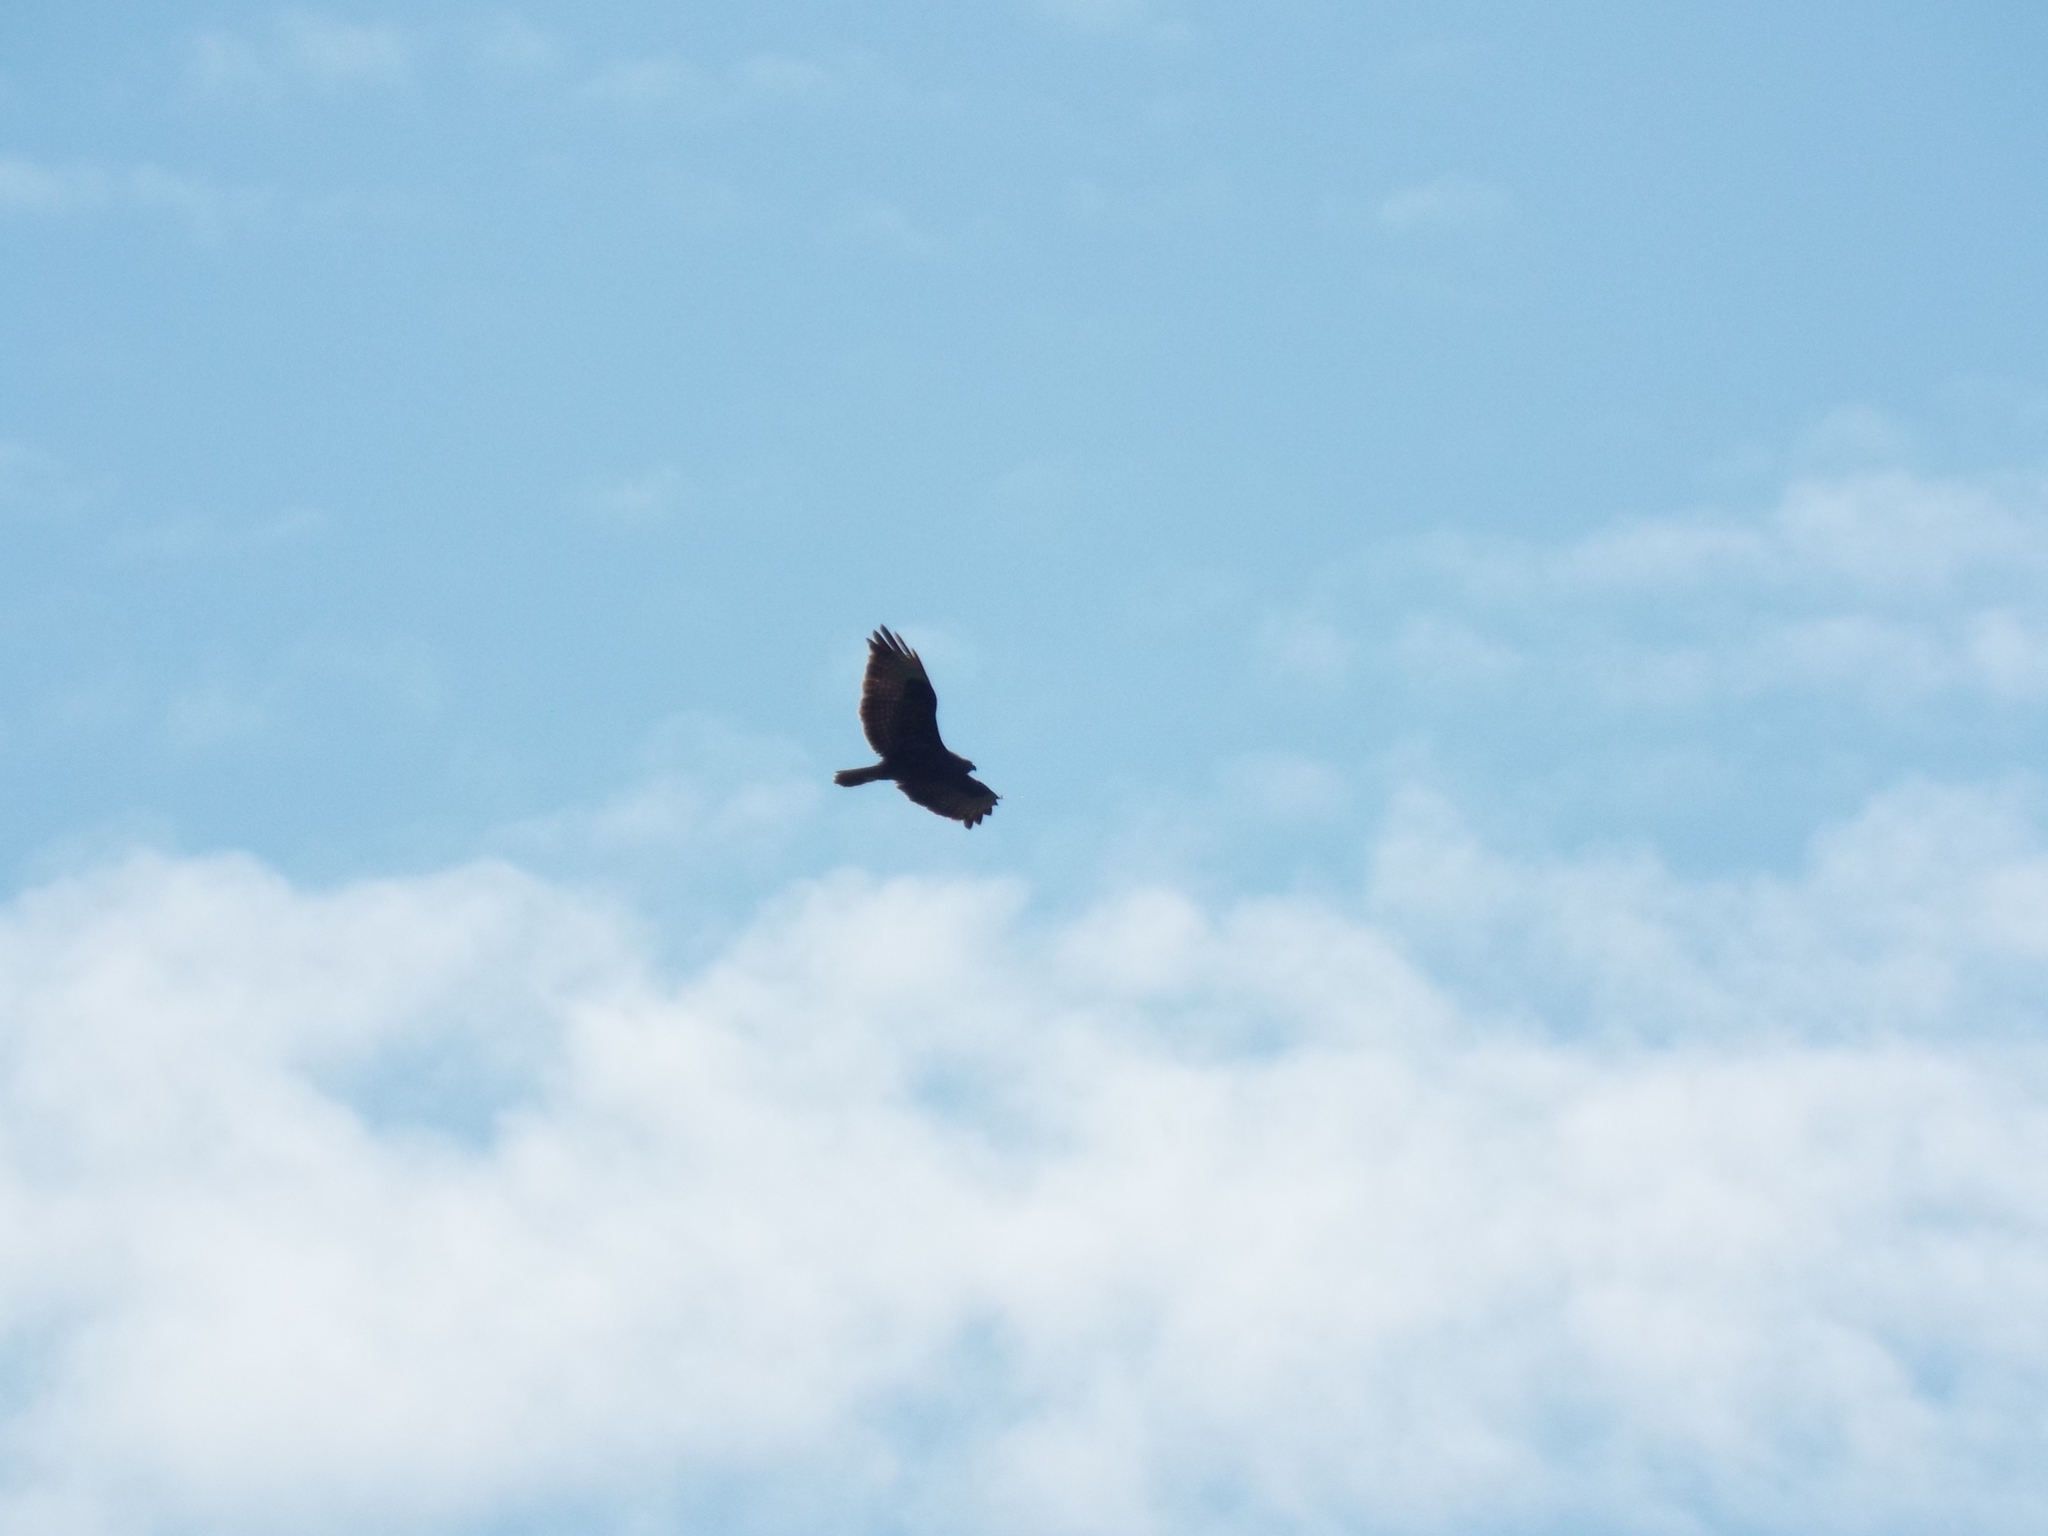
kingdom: Animalia
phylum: Chordata
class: Aves
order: Accipitriformes
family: Accipitridae
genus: Buteo
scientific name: Buteo buteo
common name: Common buzzard
